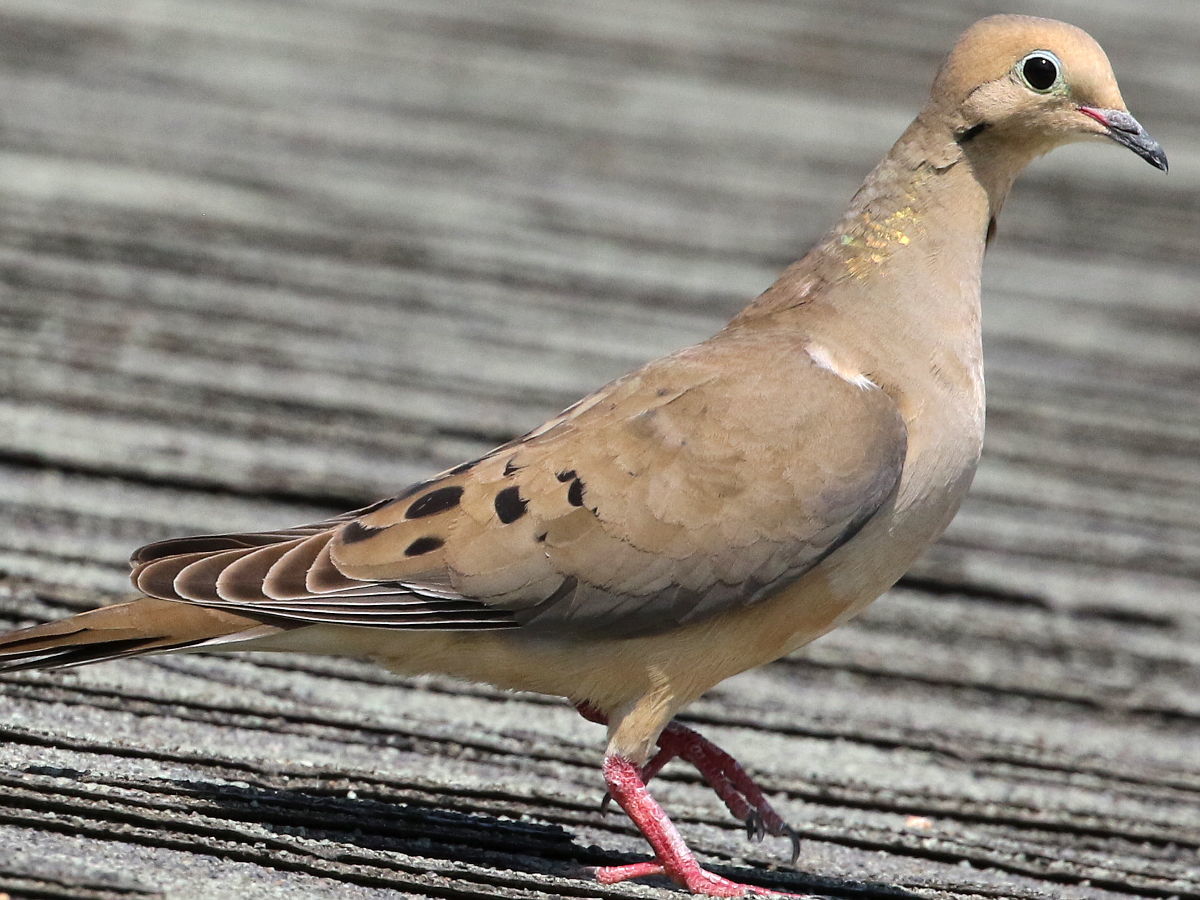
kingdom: Animalia
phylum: Chordata
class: Aves
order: Columbiformes
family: Columbidae
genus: Zenaida
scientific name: Zenaida macroura
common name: Mourning dove
